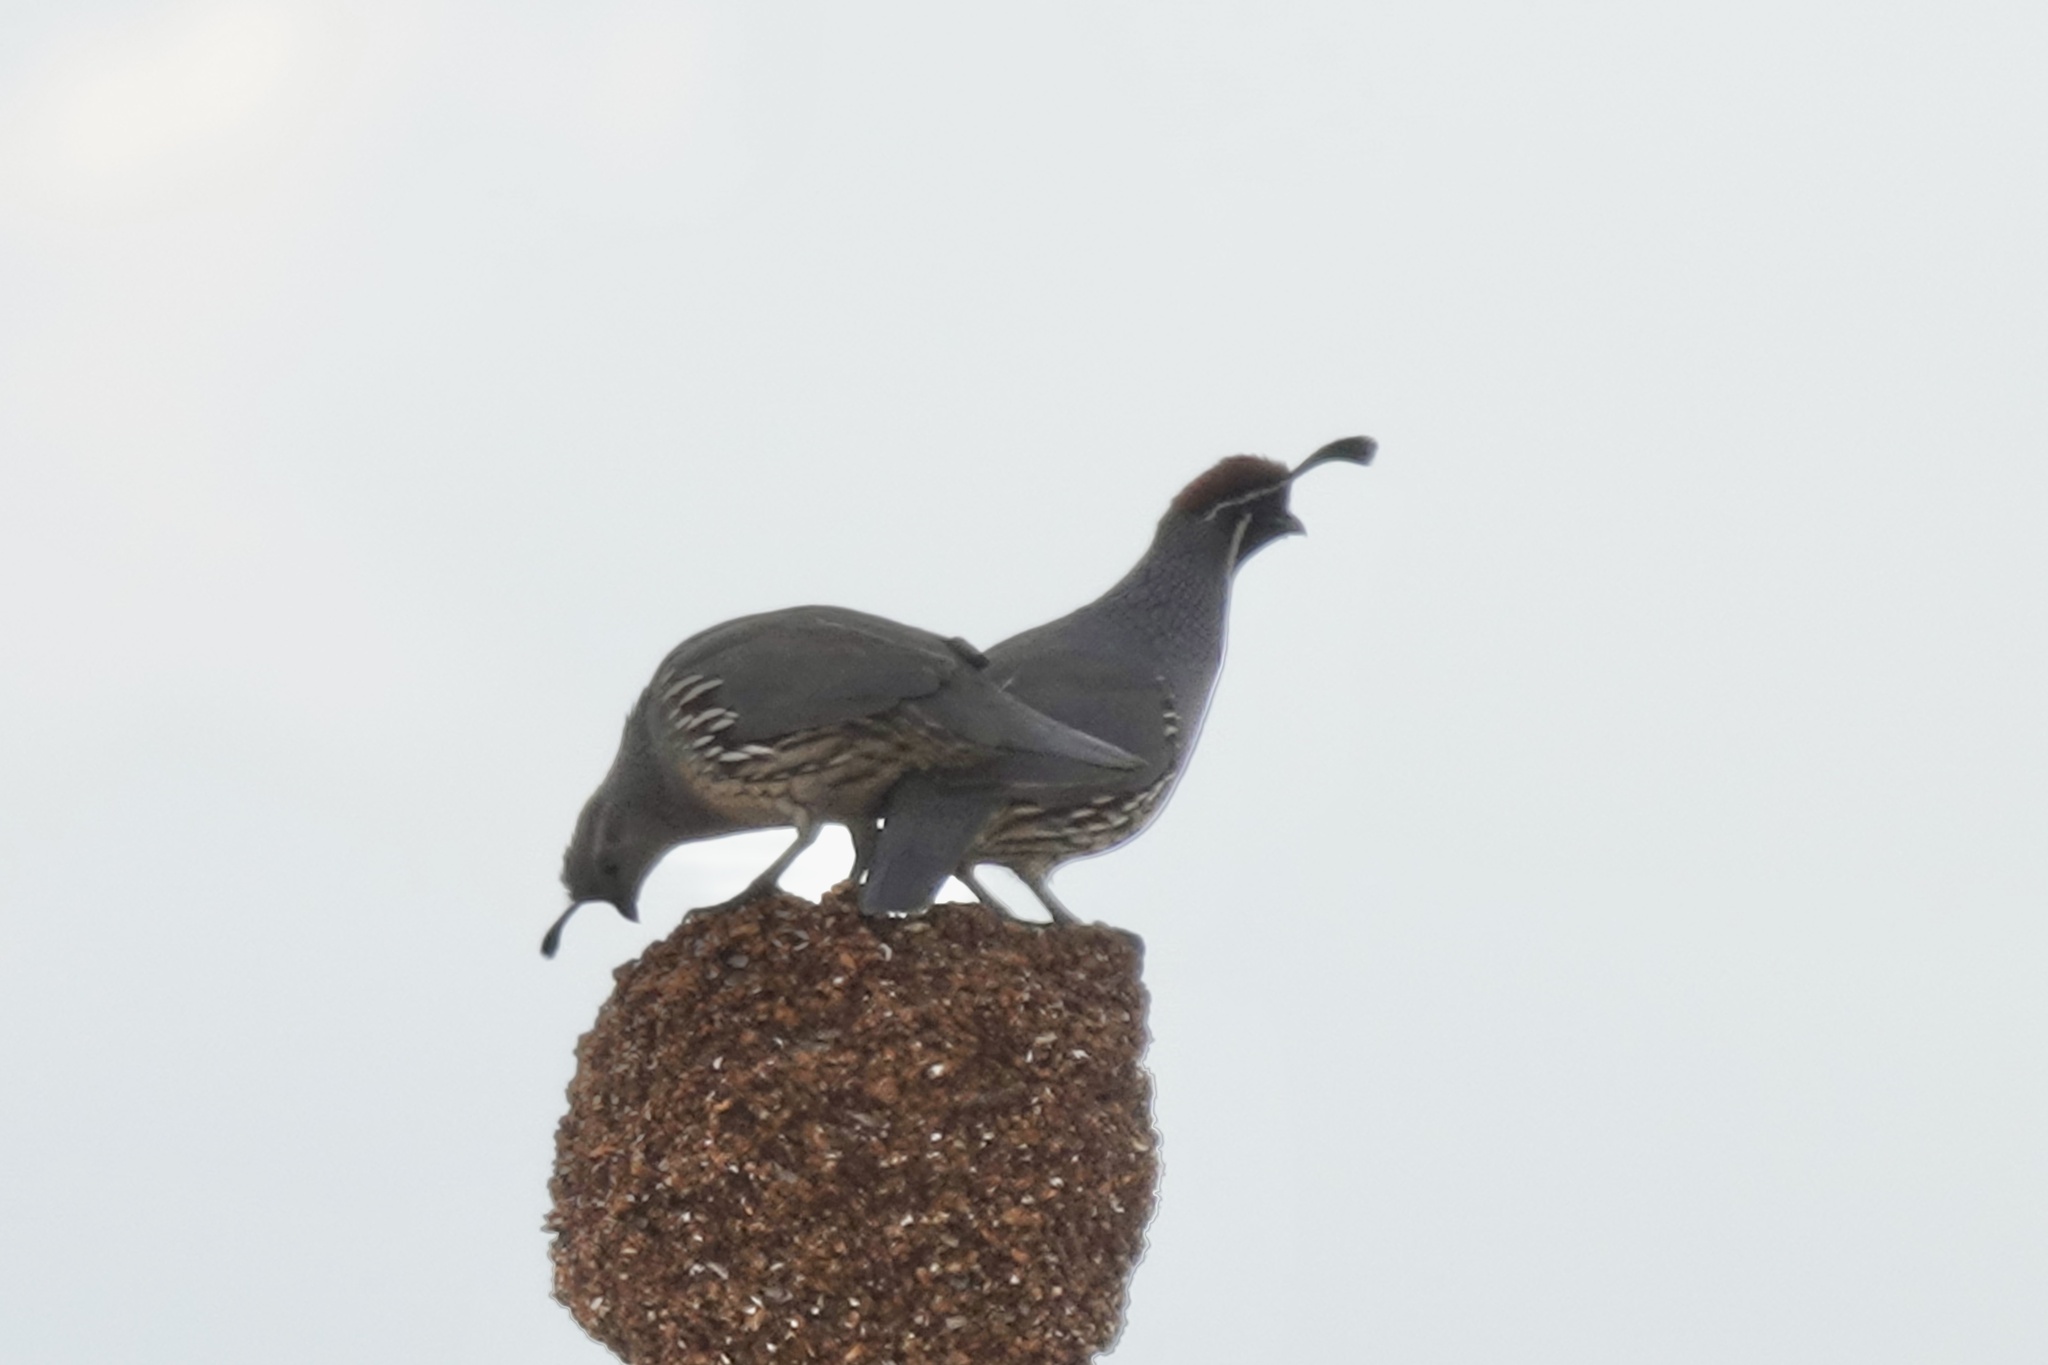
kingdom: Animalia
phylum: Chordata
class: Aves
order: Galliformes
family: Odontophoridae
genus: Callipepla
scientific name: Callipepla gambelii
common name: Gambel's quail
